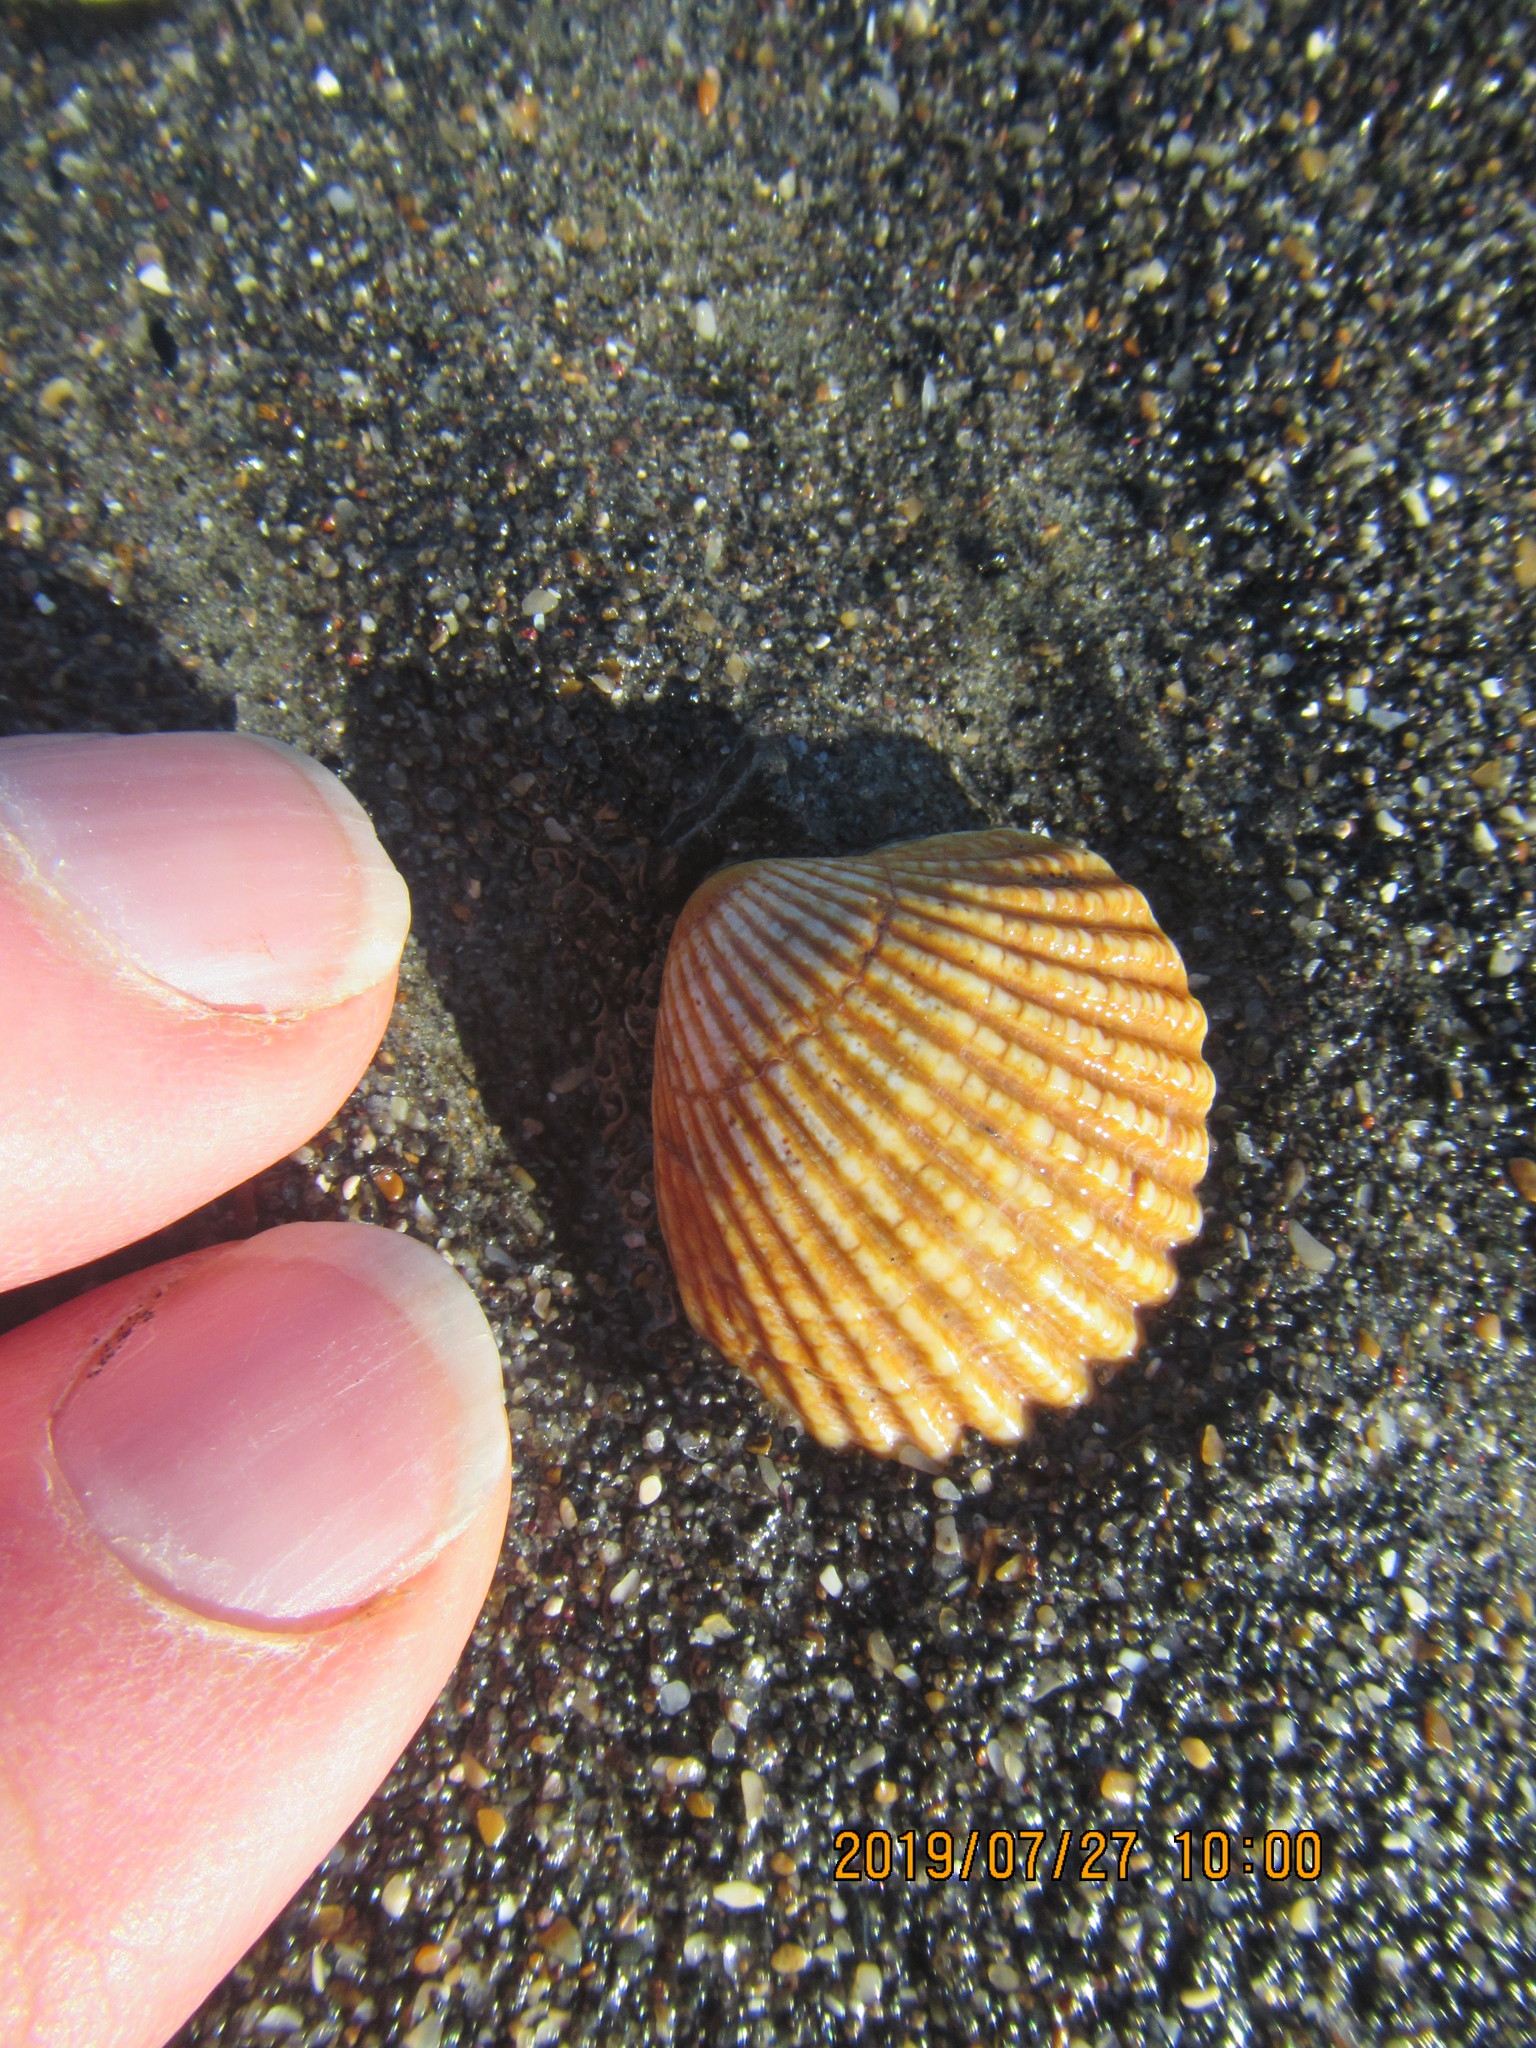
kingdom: Animalia
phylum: Mollusca
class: Bivalvia
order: Carditida
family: Carditidae
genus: Purpurocardia
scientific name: Purpurocardia purpurata
